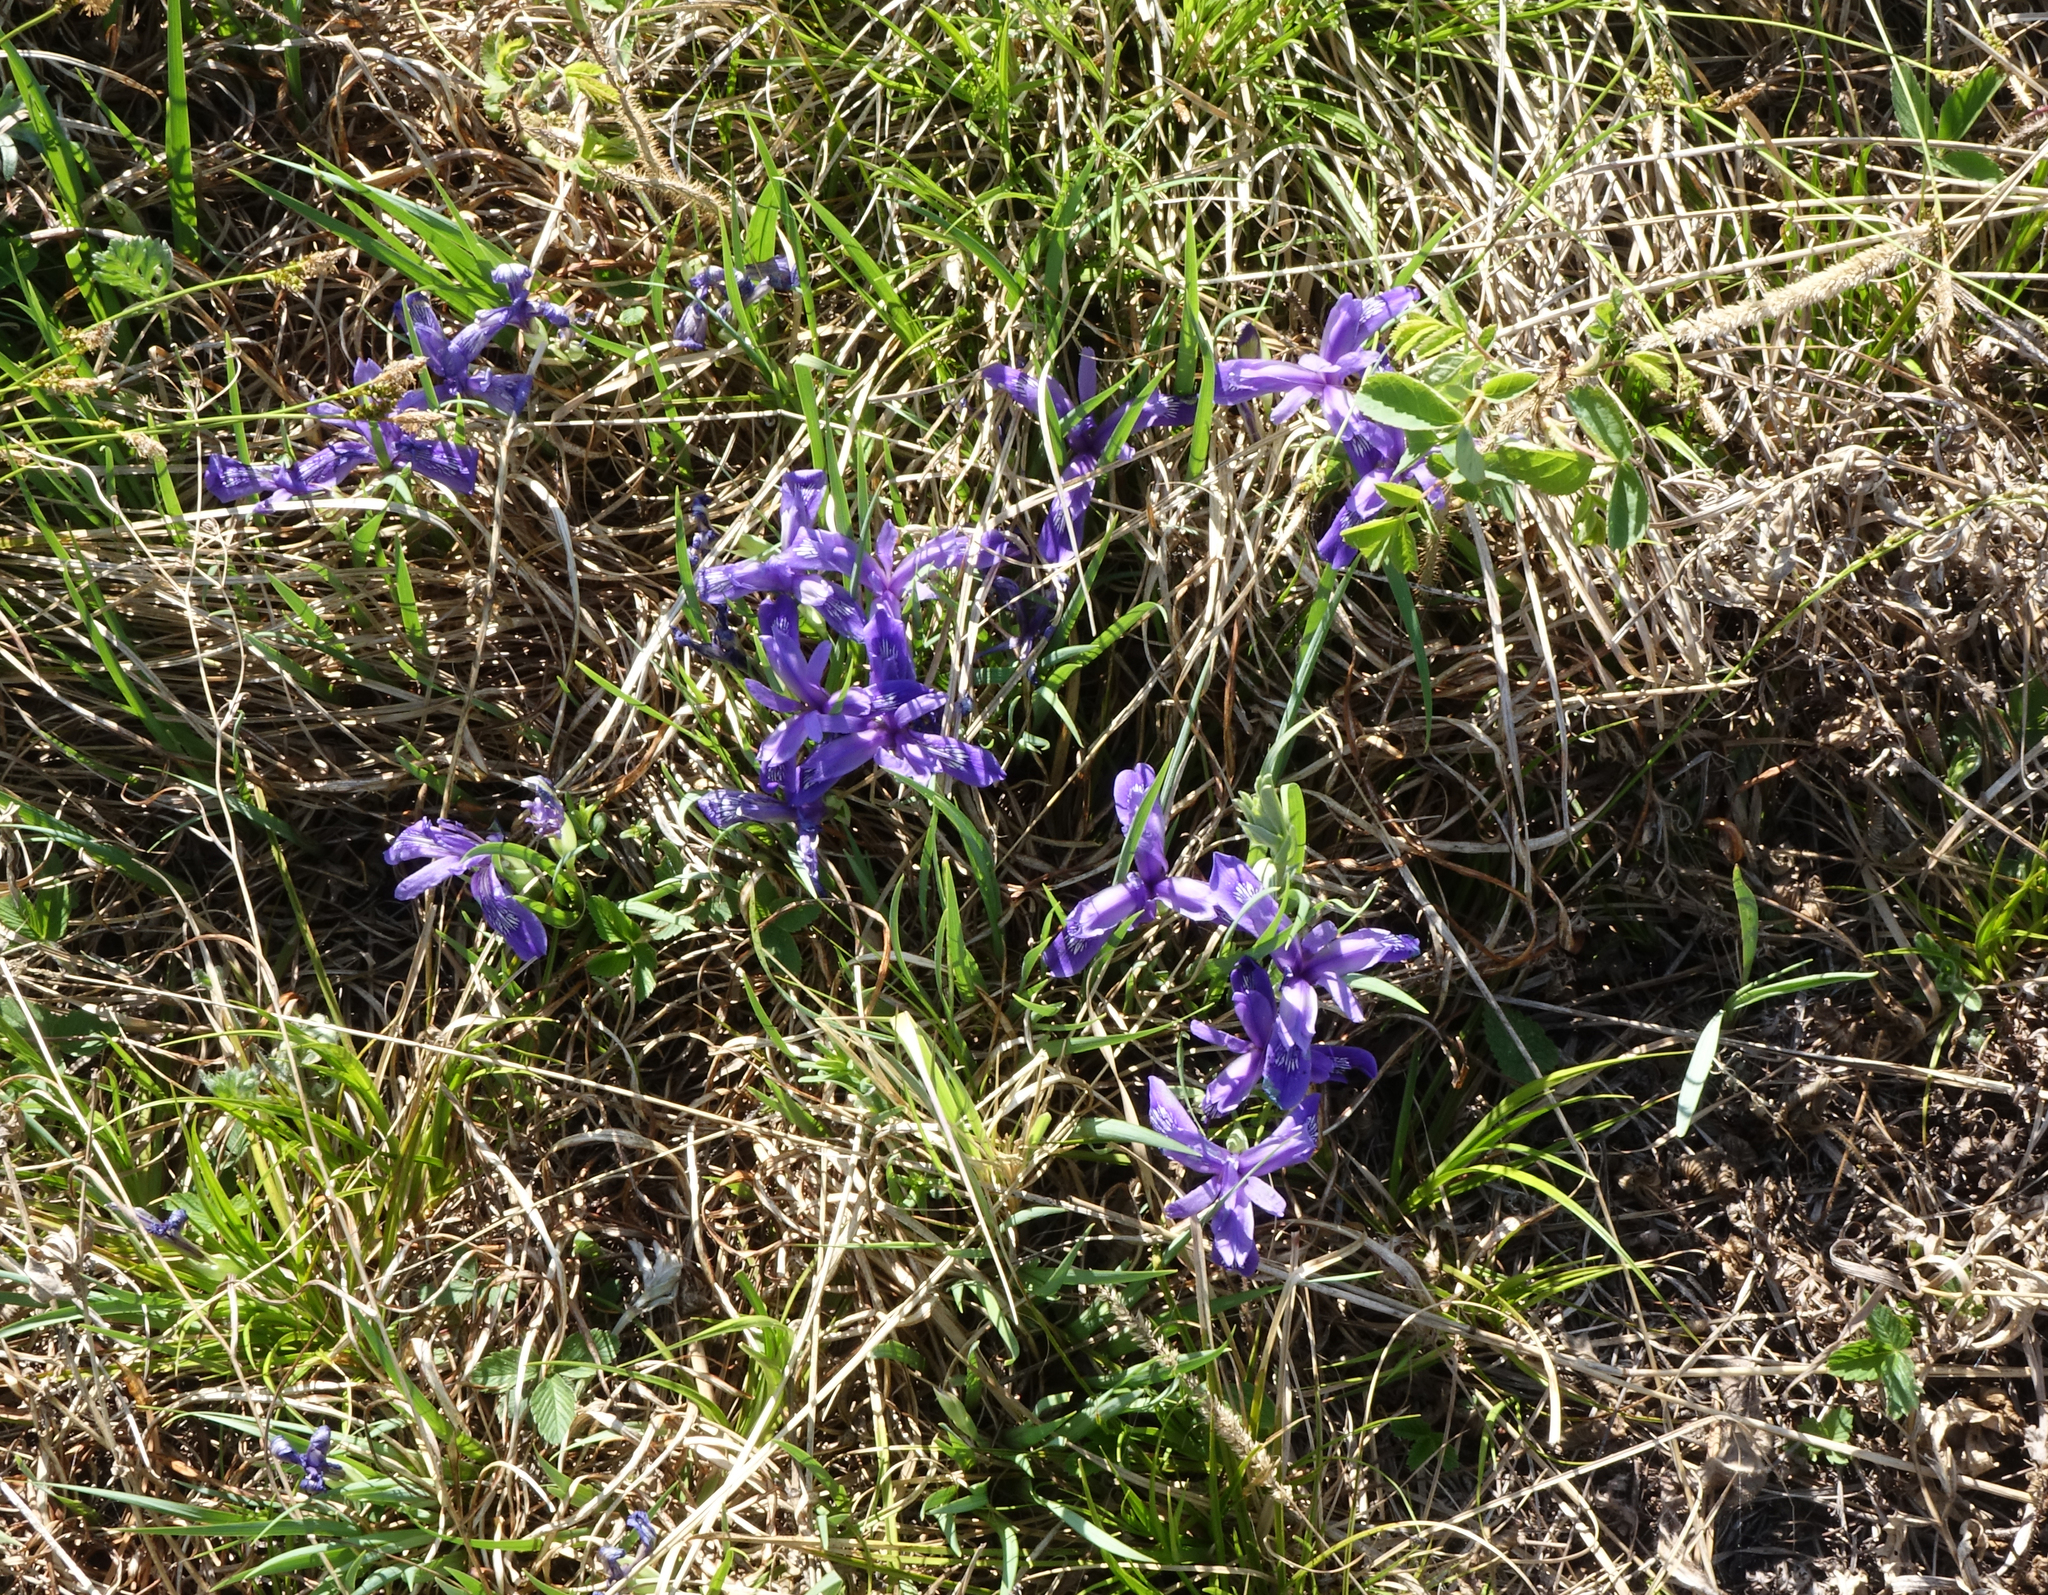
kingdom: Plantae
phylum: Tracheophyta
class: Liliopsida
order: Asparagales
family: Iridaceae
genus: Iris
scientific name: Iris ruthenica
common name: Purple-bract iris
